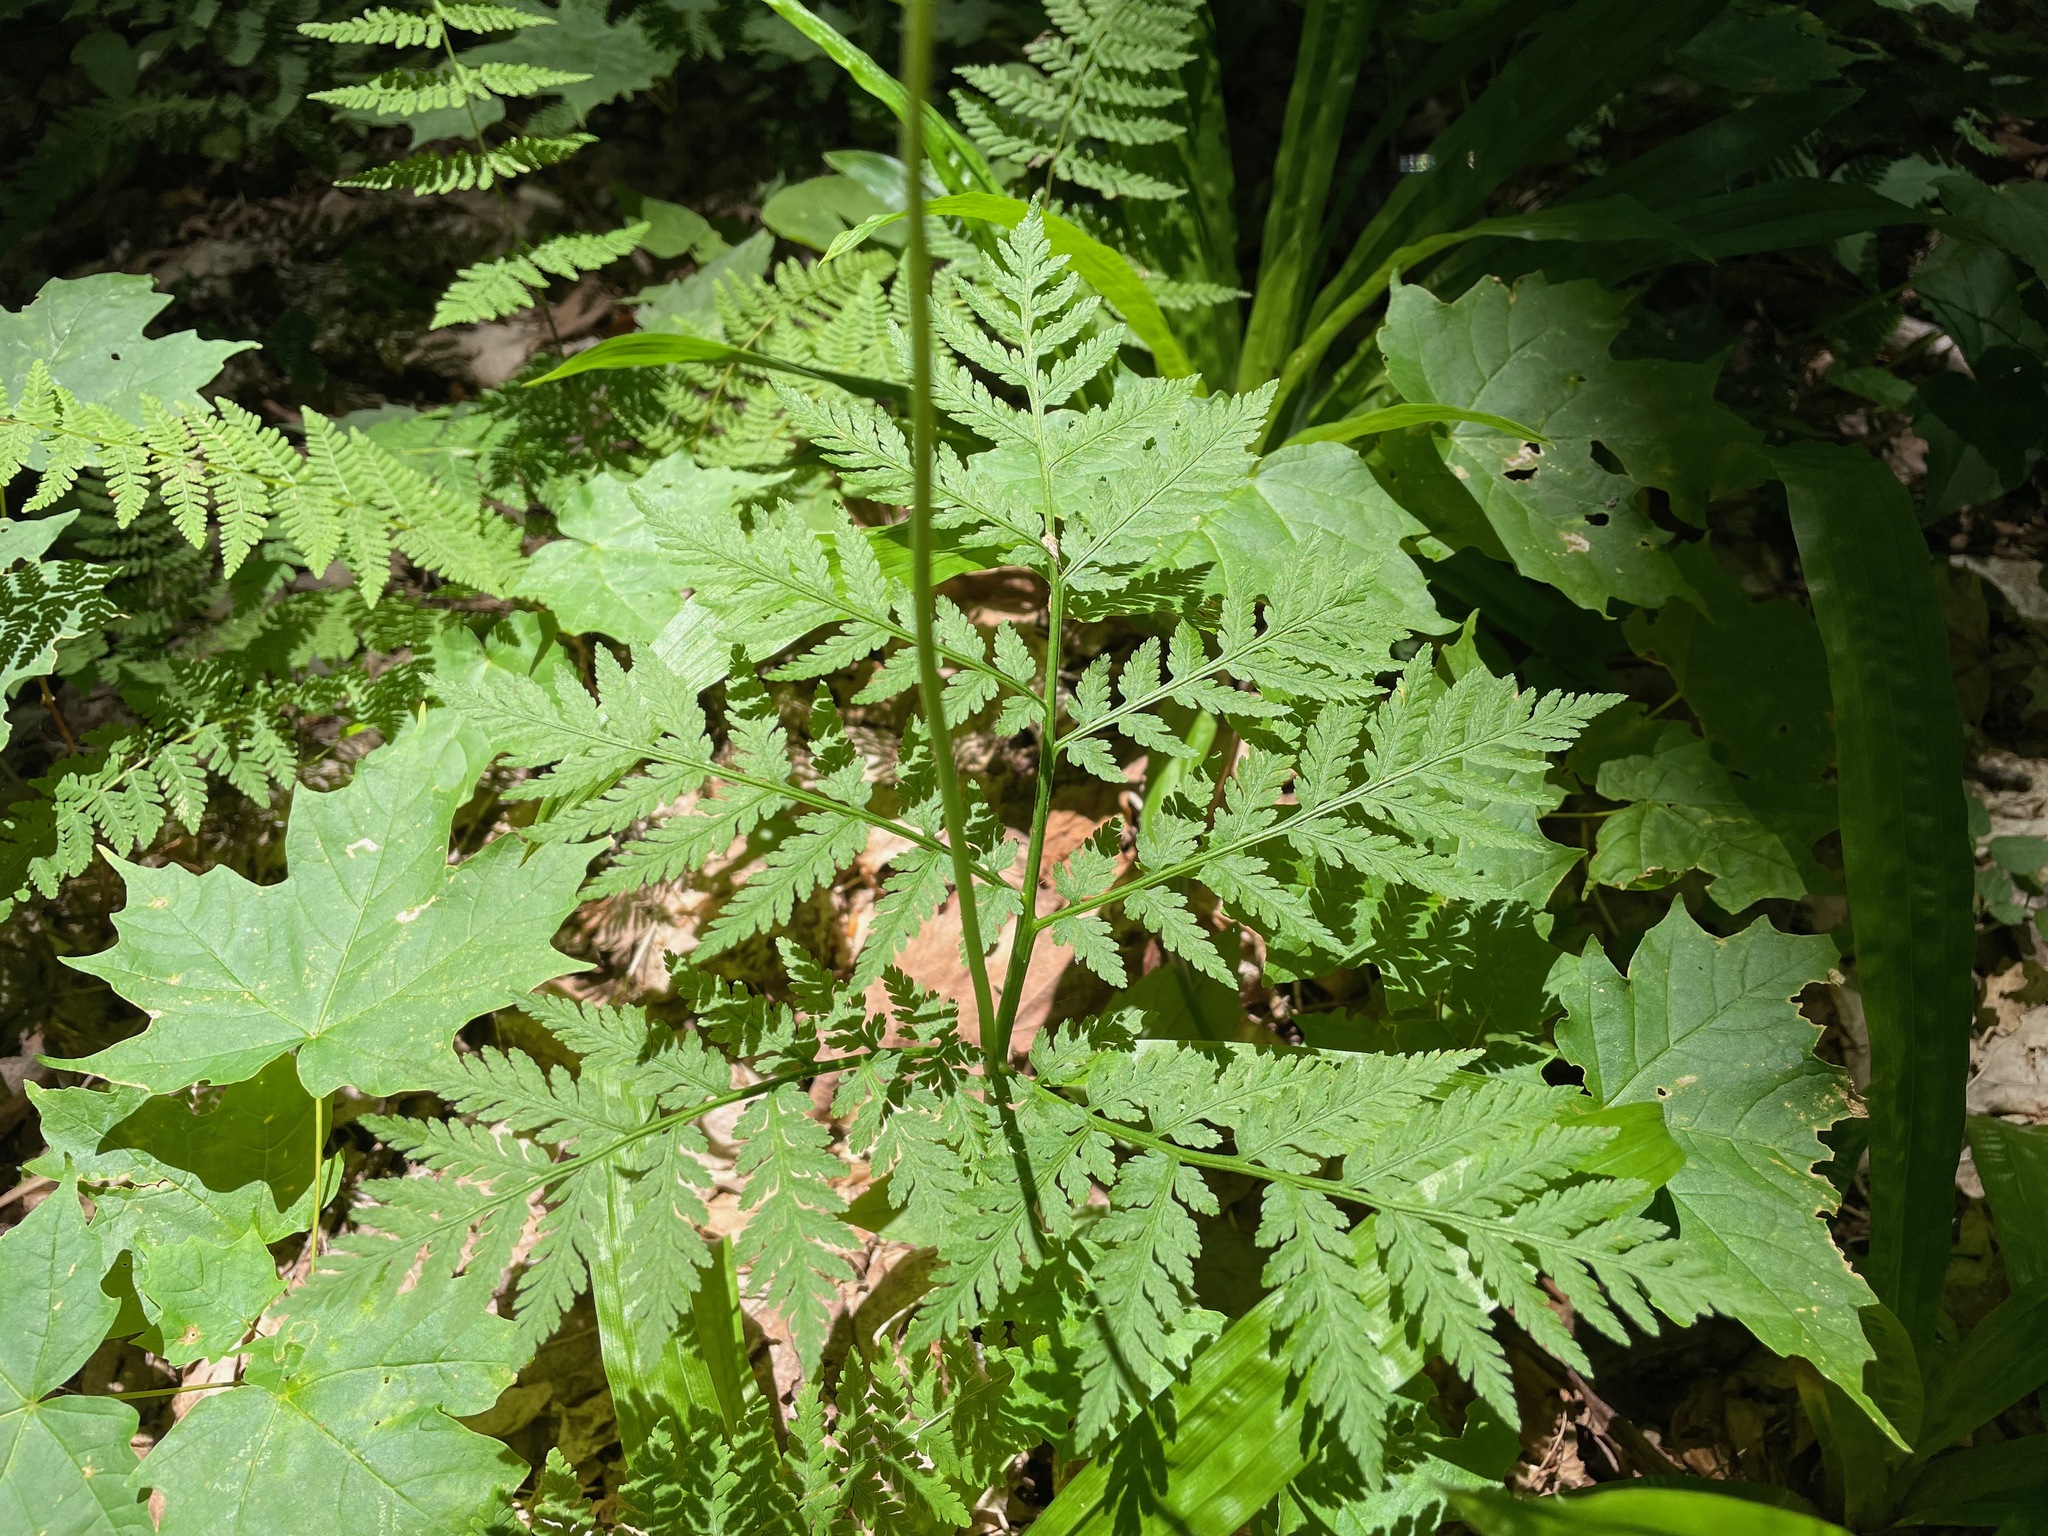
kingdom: Plantae
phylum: Tracheophyta
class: Polypodiopsida
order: Ophioglossales
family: Ophioglossaceae
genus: Botrypus
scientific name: Botrypus virginianus
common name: Common grapefern
